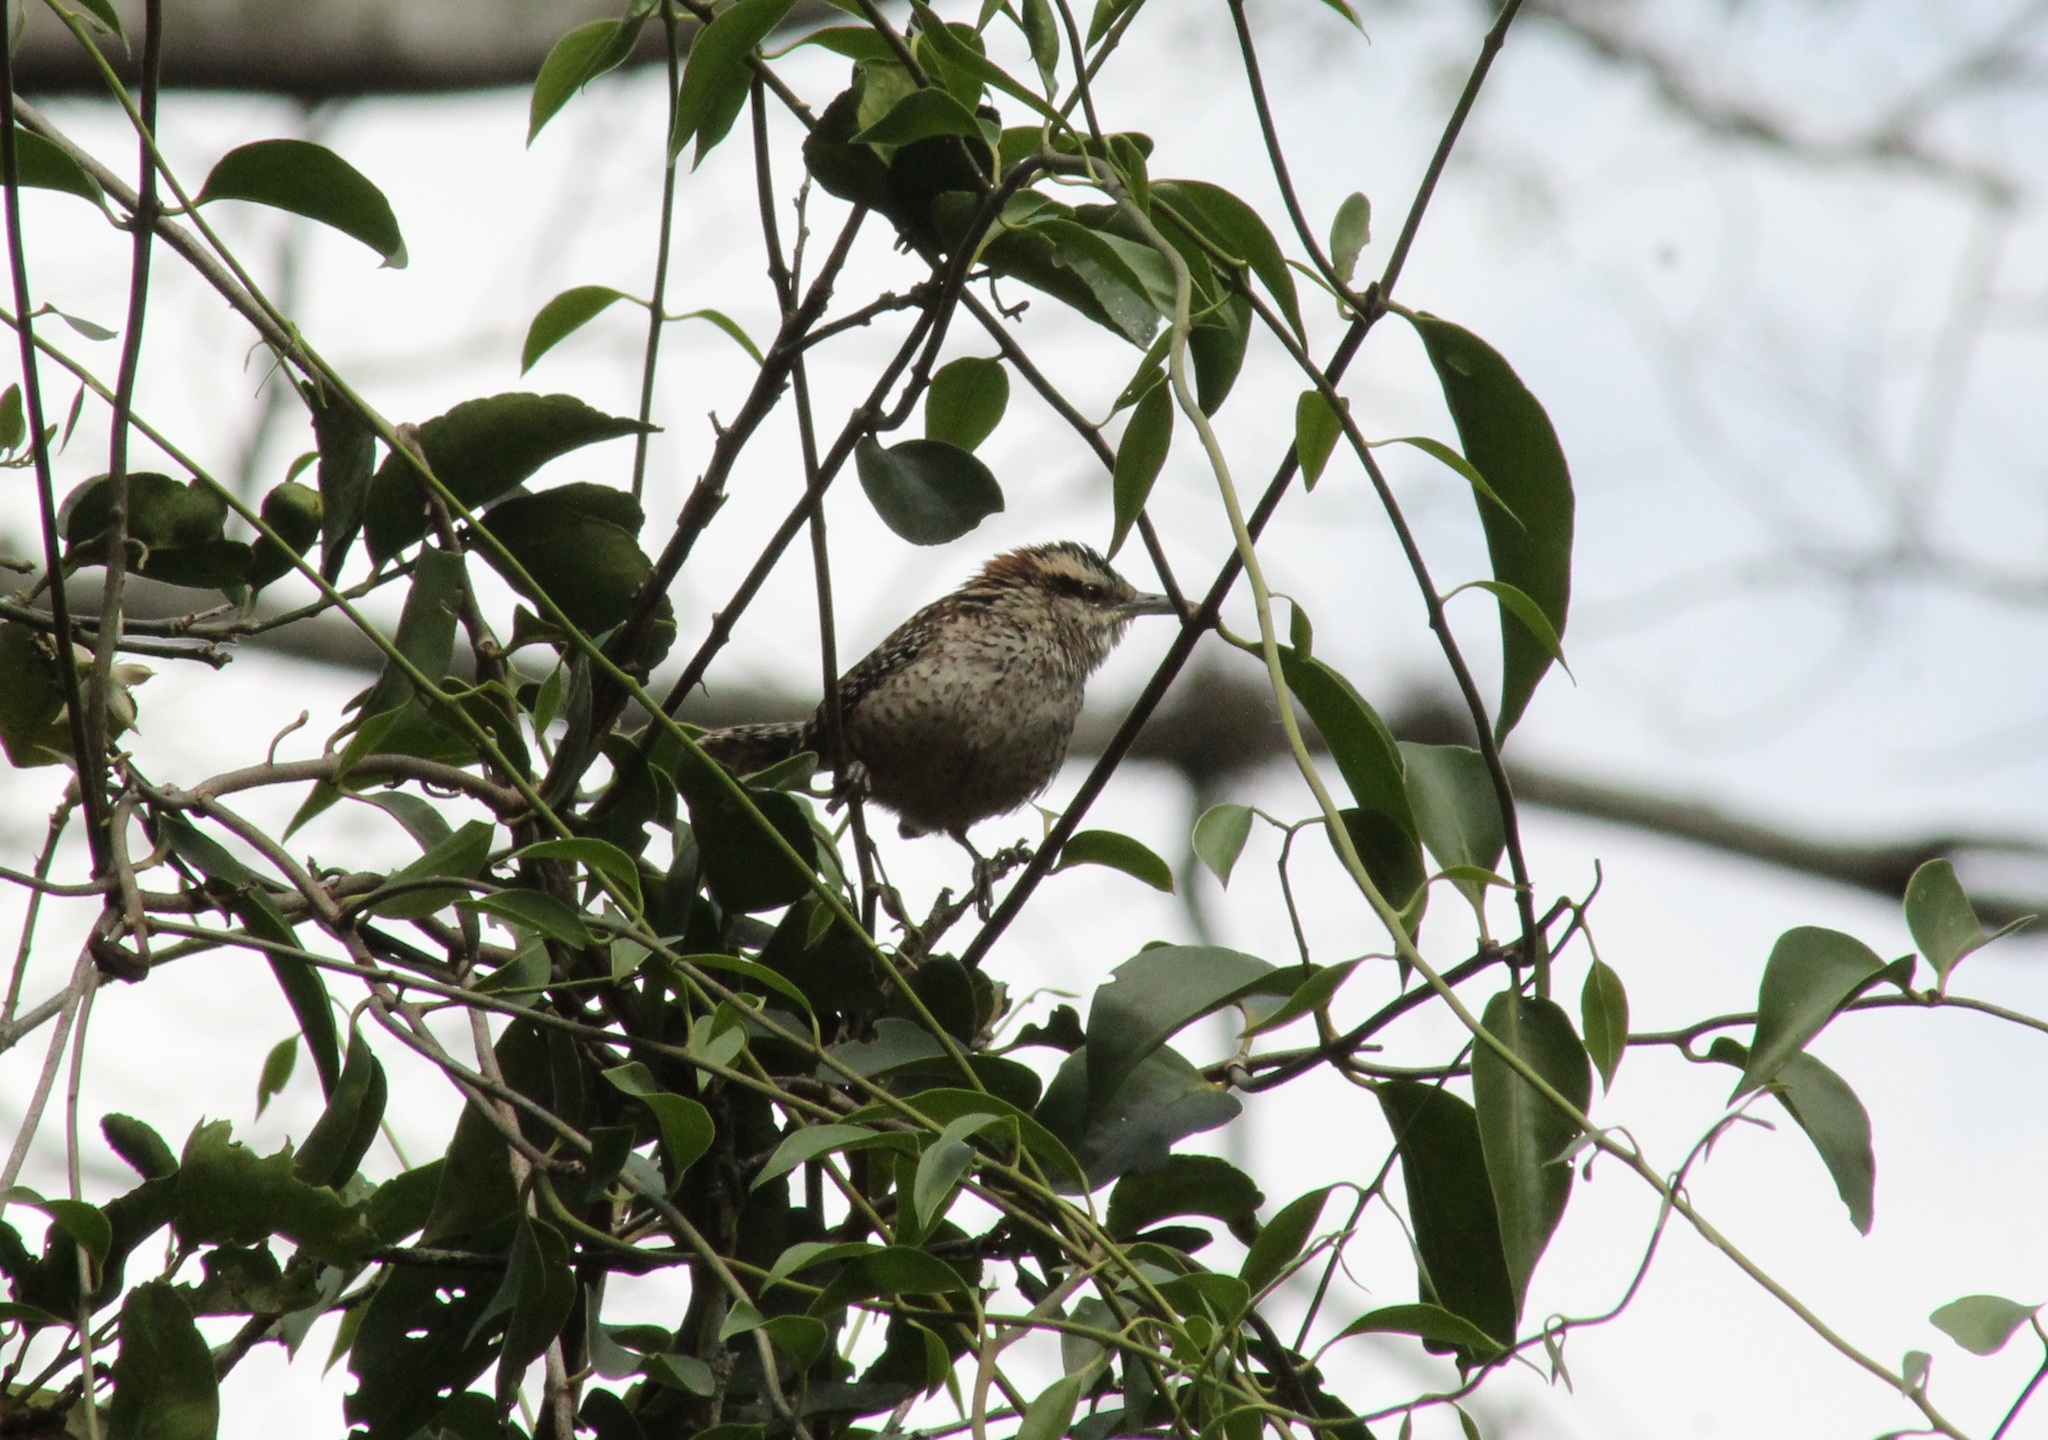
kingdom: Animalia
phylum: Chordata
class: Aves
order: Passeriformes
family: Troglodytidae
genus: Campylorhynchus
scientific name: Campylorhynchus rufinucha
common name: Rufous-naped wren
